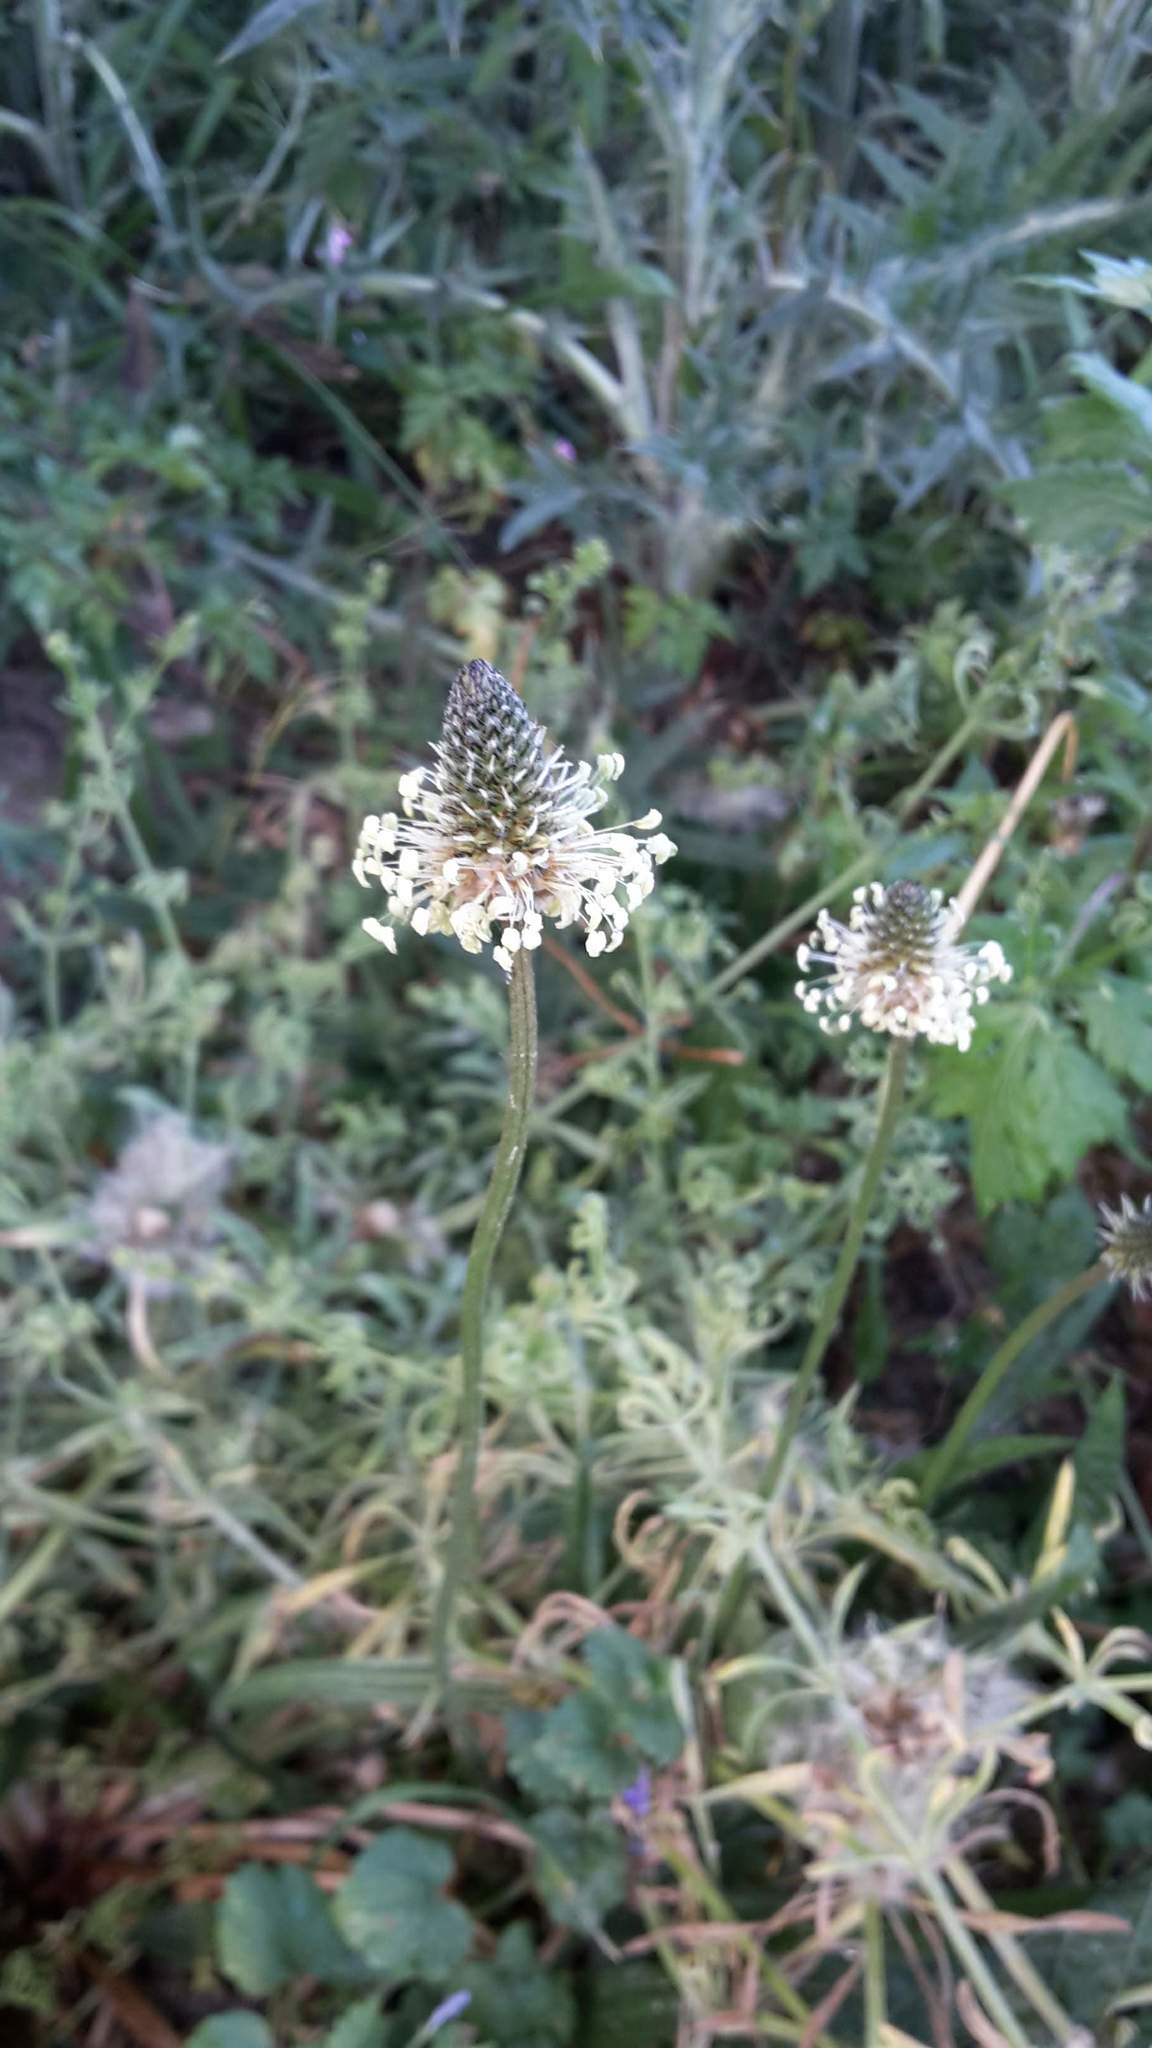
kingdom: Plantae
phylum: Tracheophyta
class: Magnoliopsida
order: Lamiales
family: Plantaginaceae
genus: Plantago
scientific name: Plantago lanceolata
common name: Ribwort plantain
